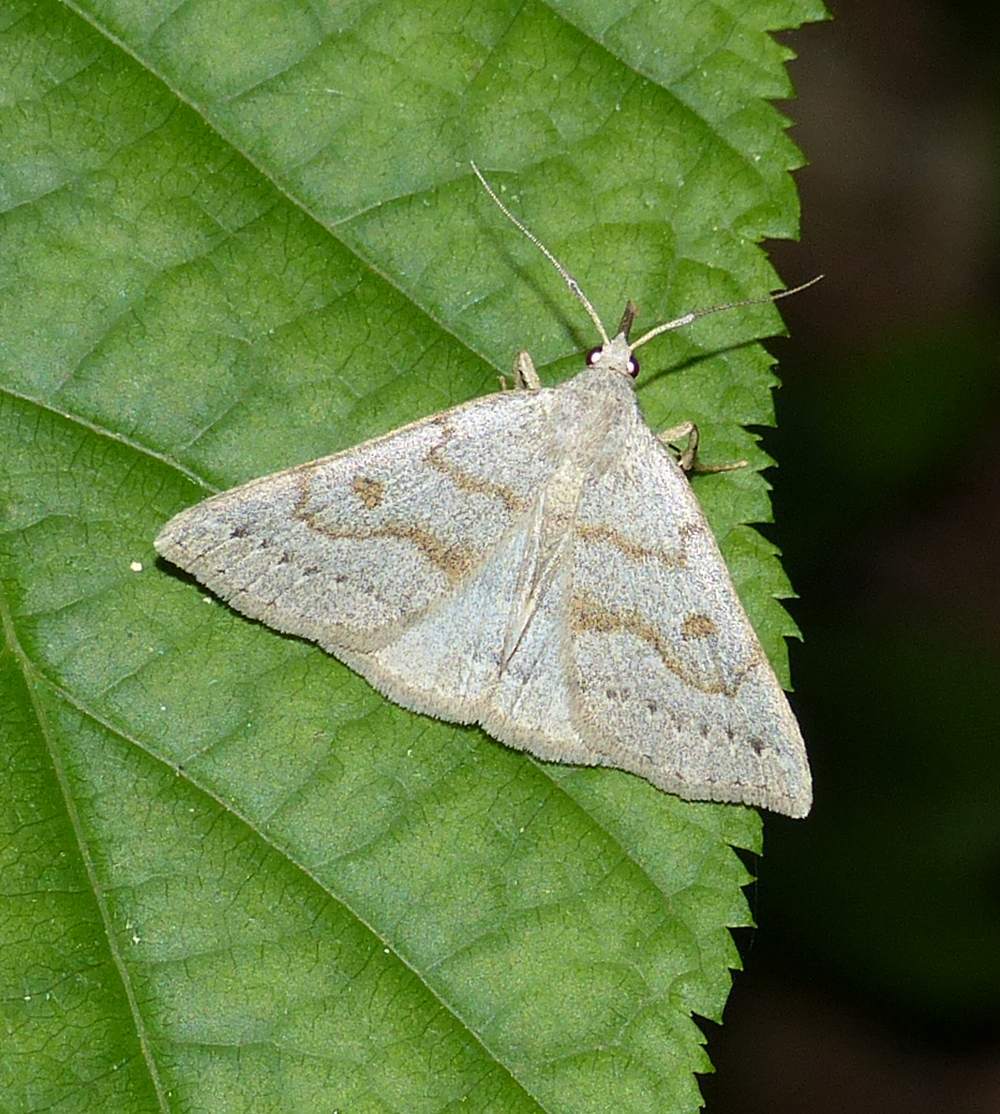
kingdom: Animalia
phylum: Arthropoda
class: Insecta
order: Lepidoptera
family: Erebidae
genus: Macrochilo
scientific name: Macrochilo morbidalis
